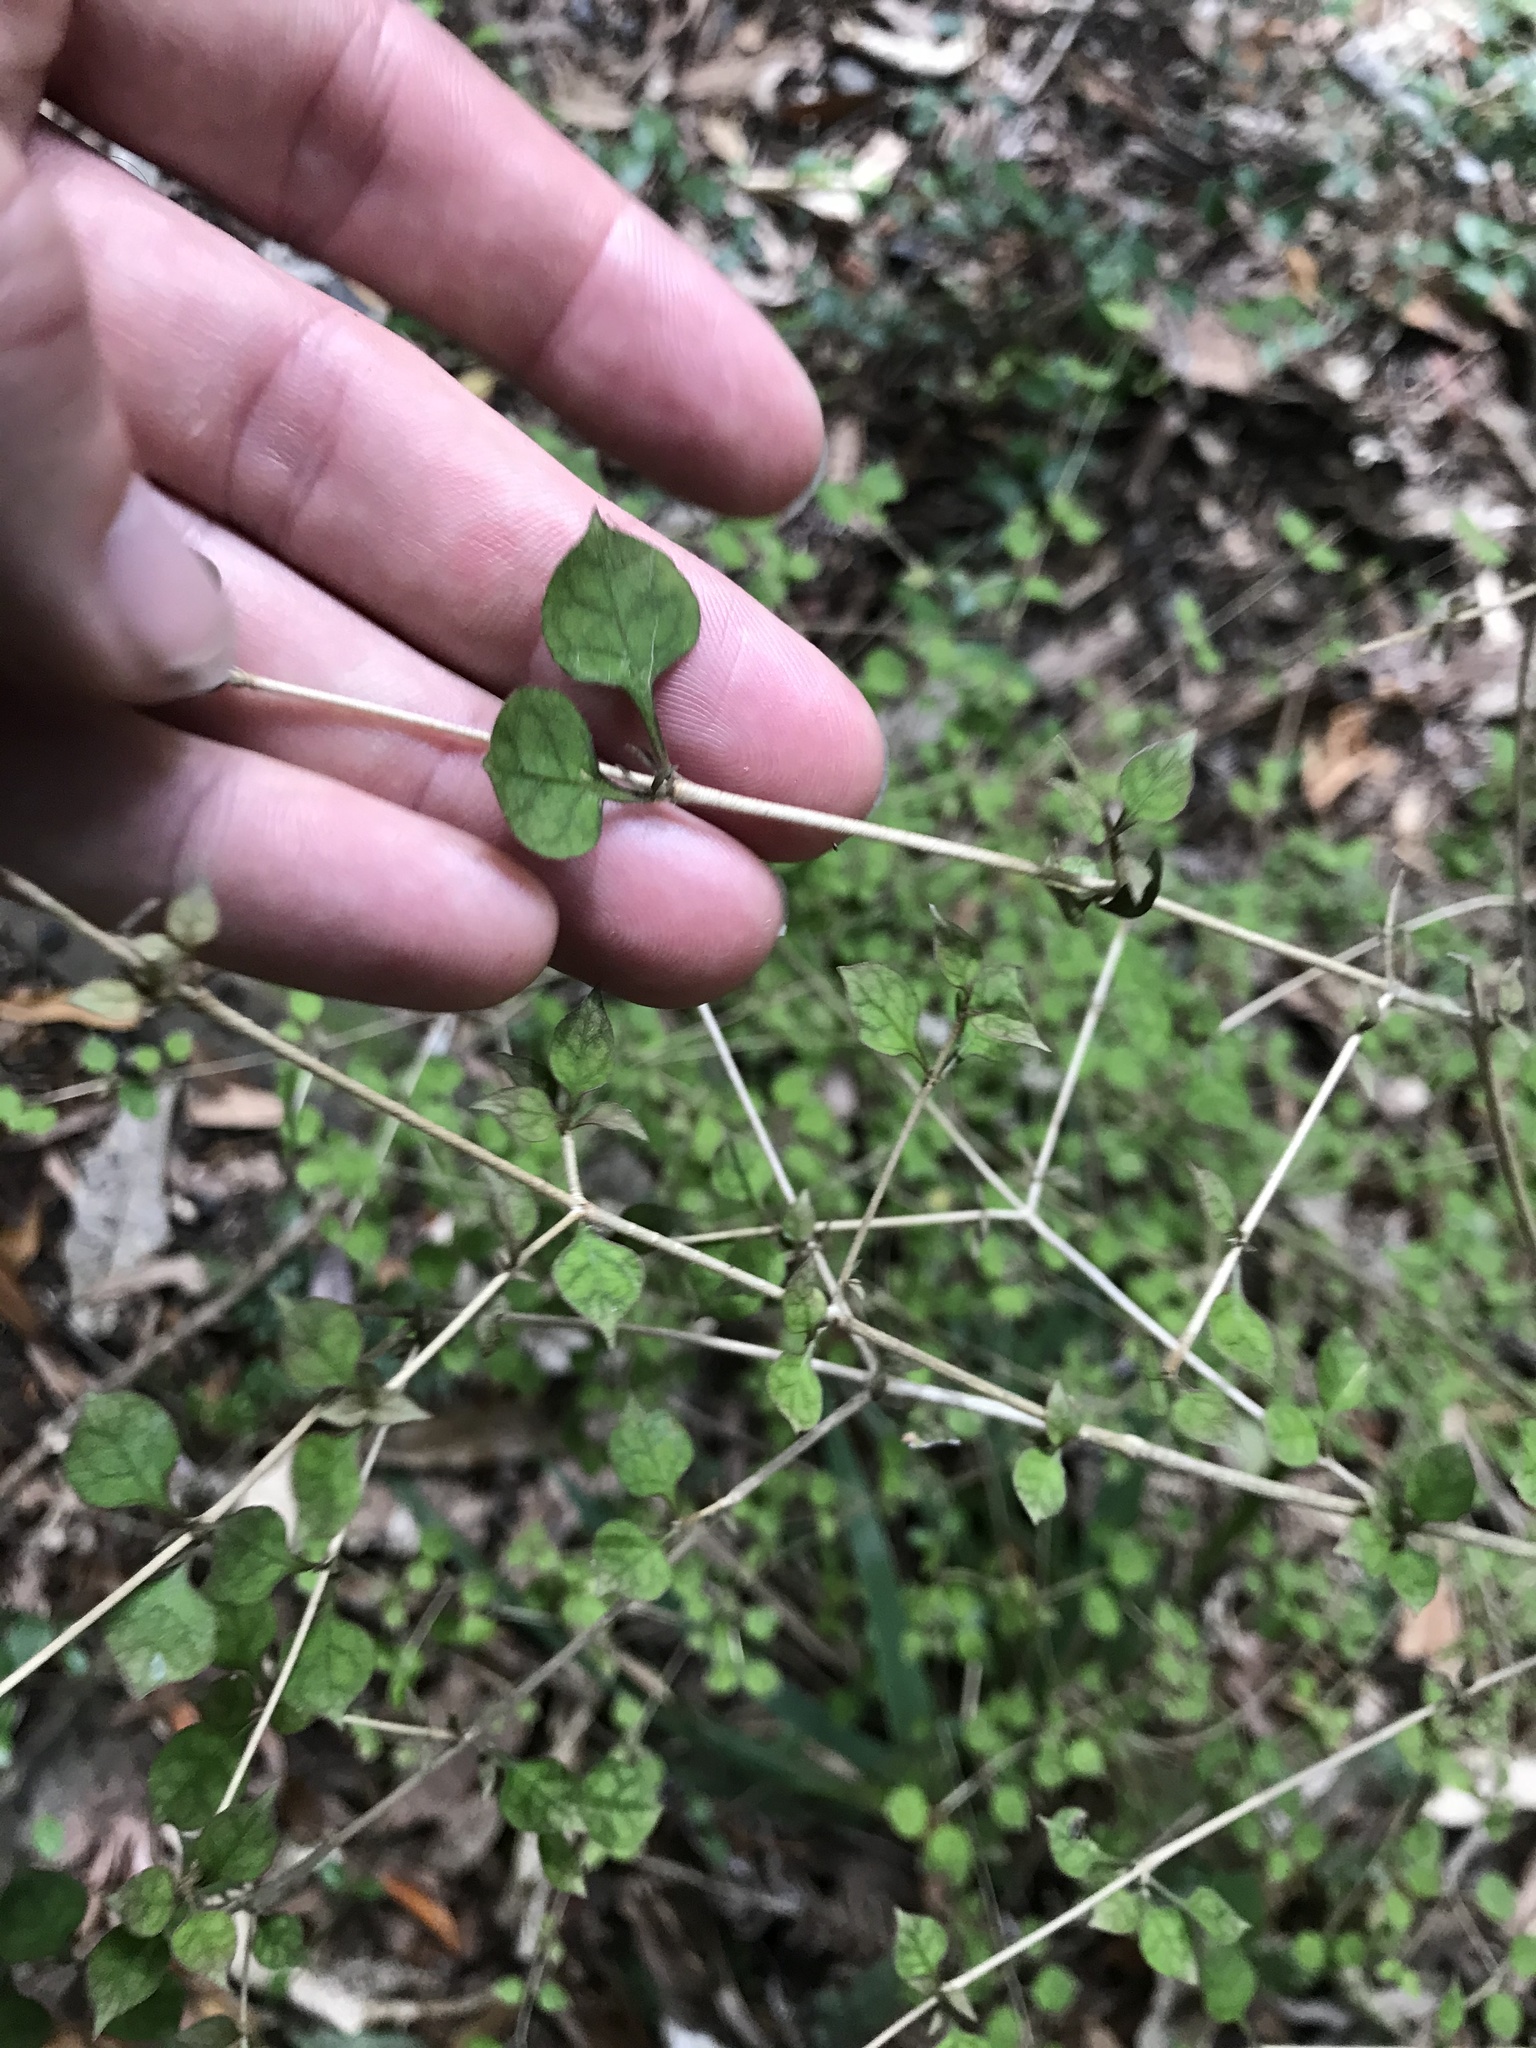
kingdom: Plantae
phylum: Tracheophyta
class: Magnoliopsida
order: Gentianales
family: Rubiaceae
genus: Coprosma
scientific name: Coprosma areolata
